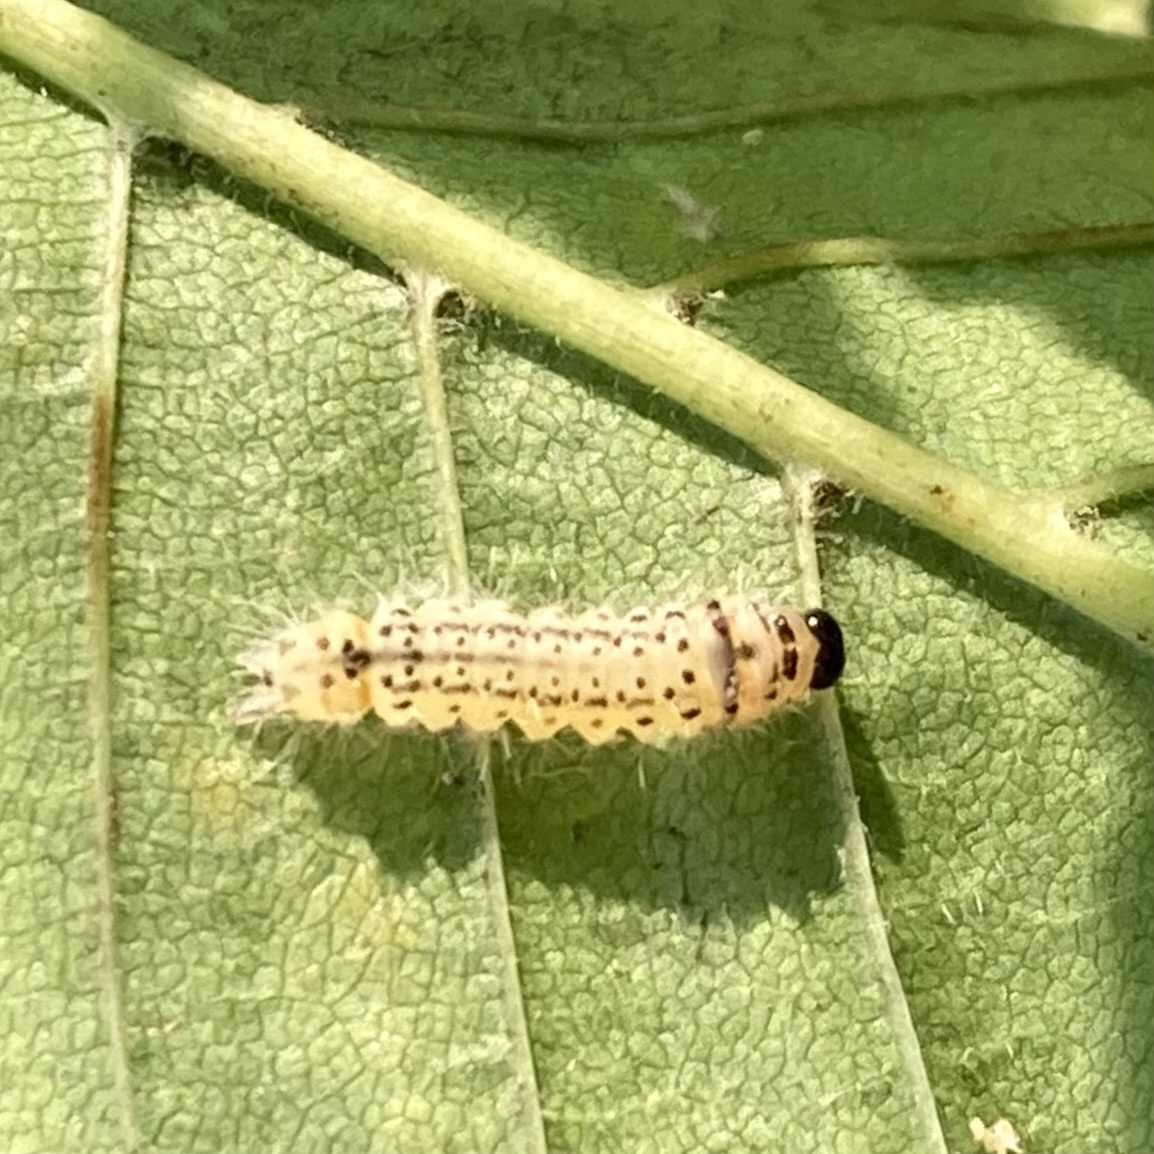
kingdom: Animalia
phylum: Arthropoda
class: Insecta
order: Lepidoptera
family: Erebidae
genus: Halysidota
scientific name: Halysidota tessellaris
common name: Banded tussock moth
